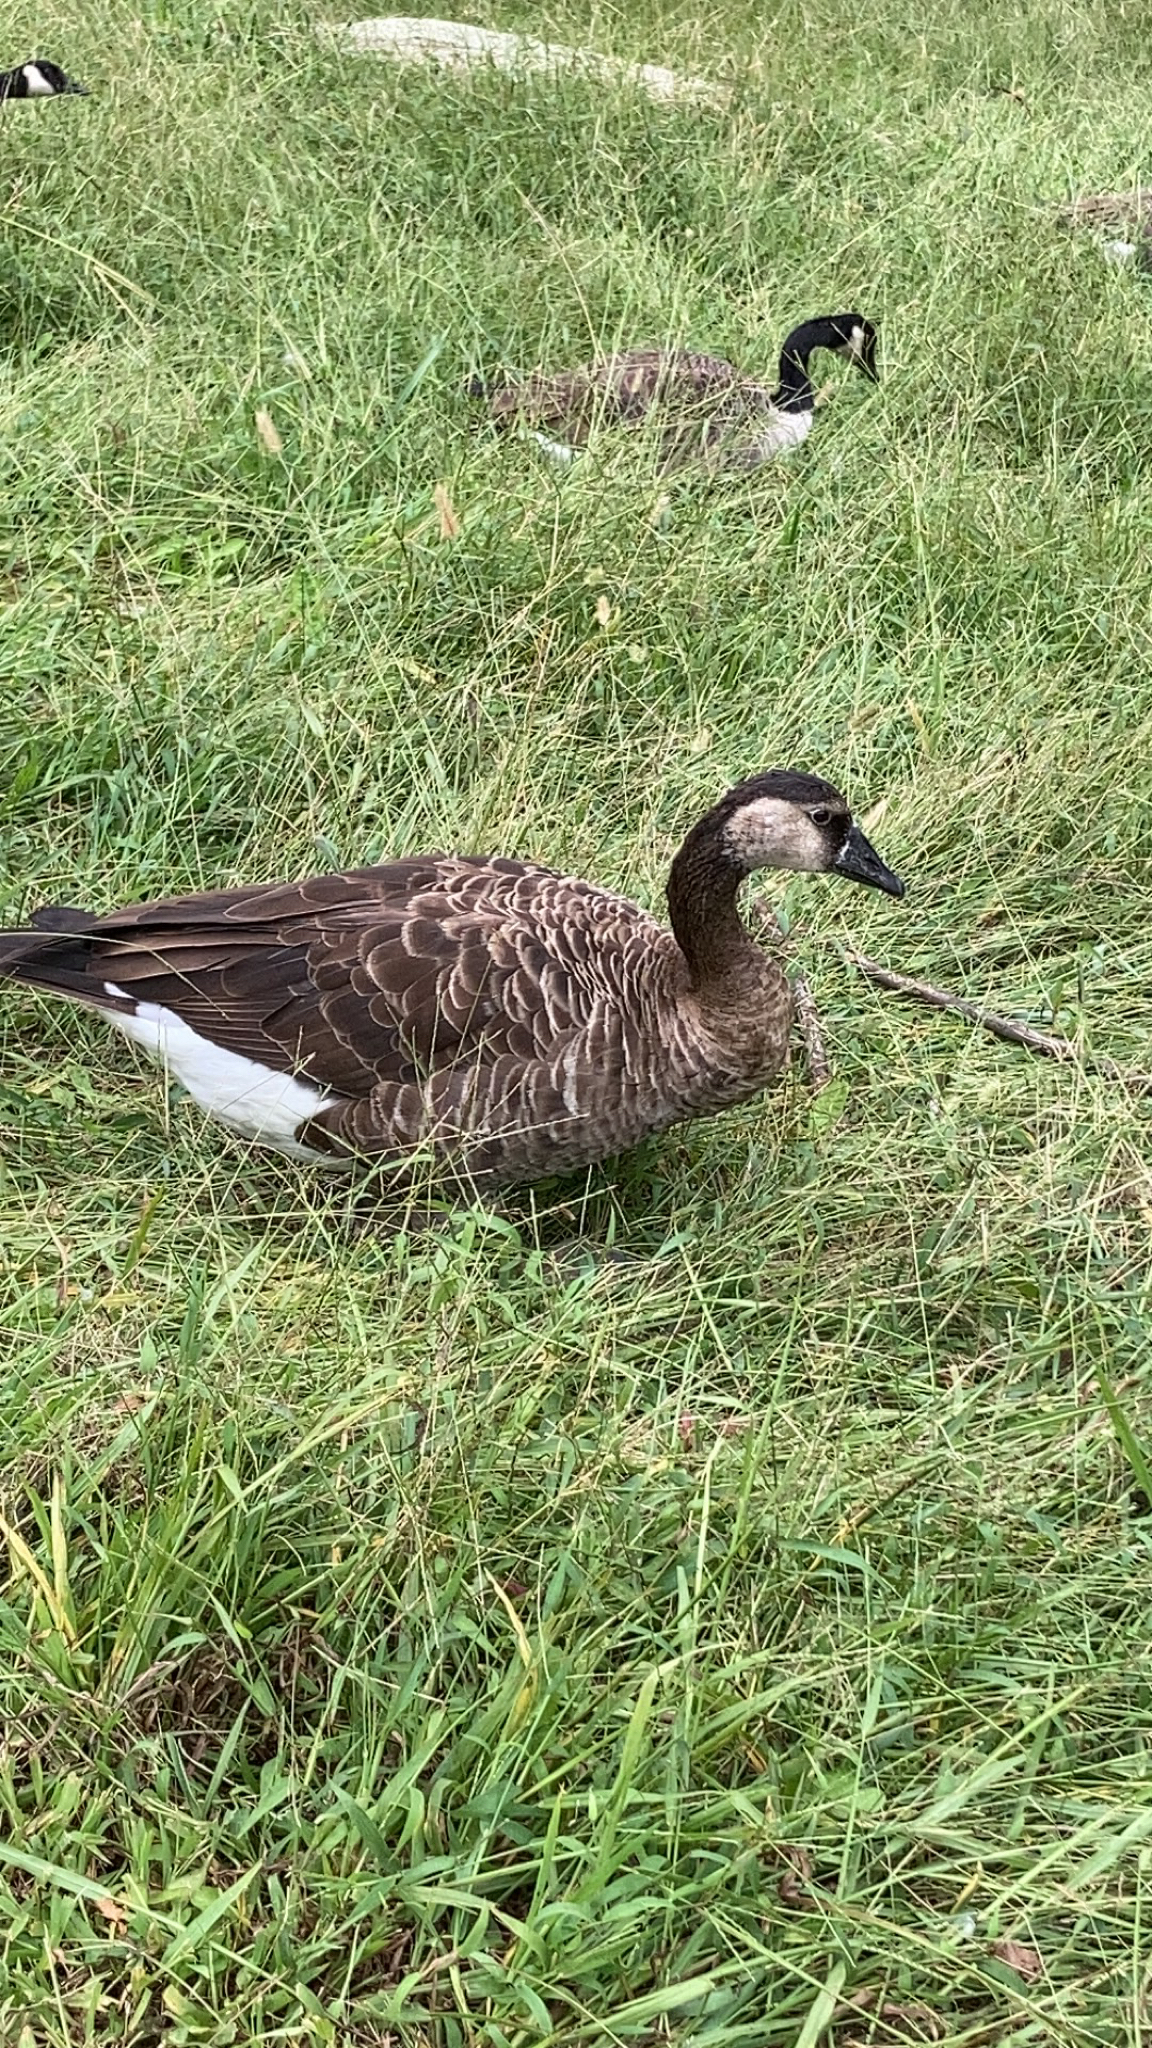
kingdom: Animalia
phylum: Chordata
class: Aves
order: Anseriformes
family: Anatidae
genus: Branta
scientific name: Branta canadensis
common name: Canada goose
